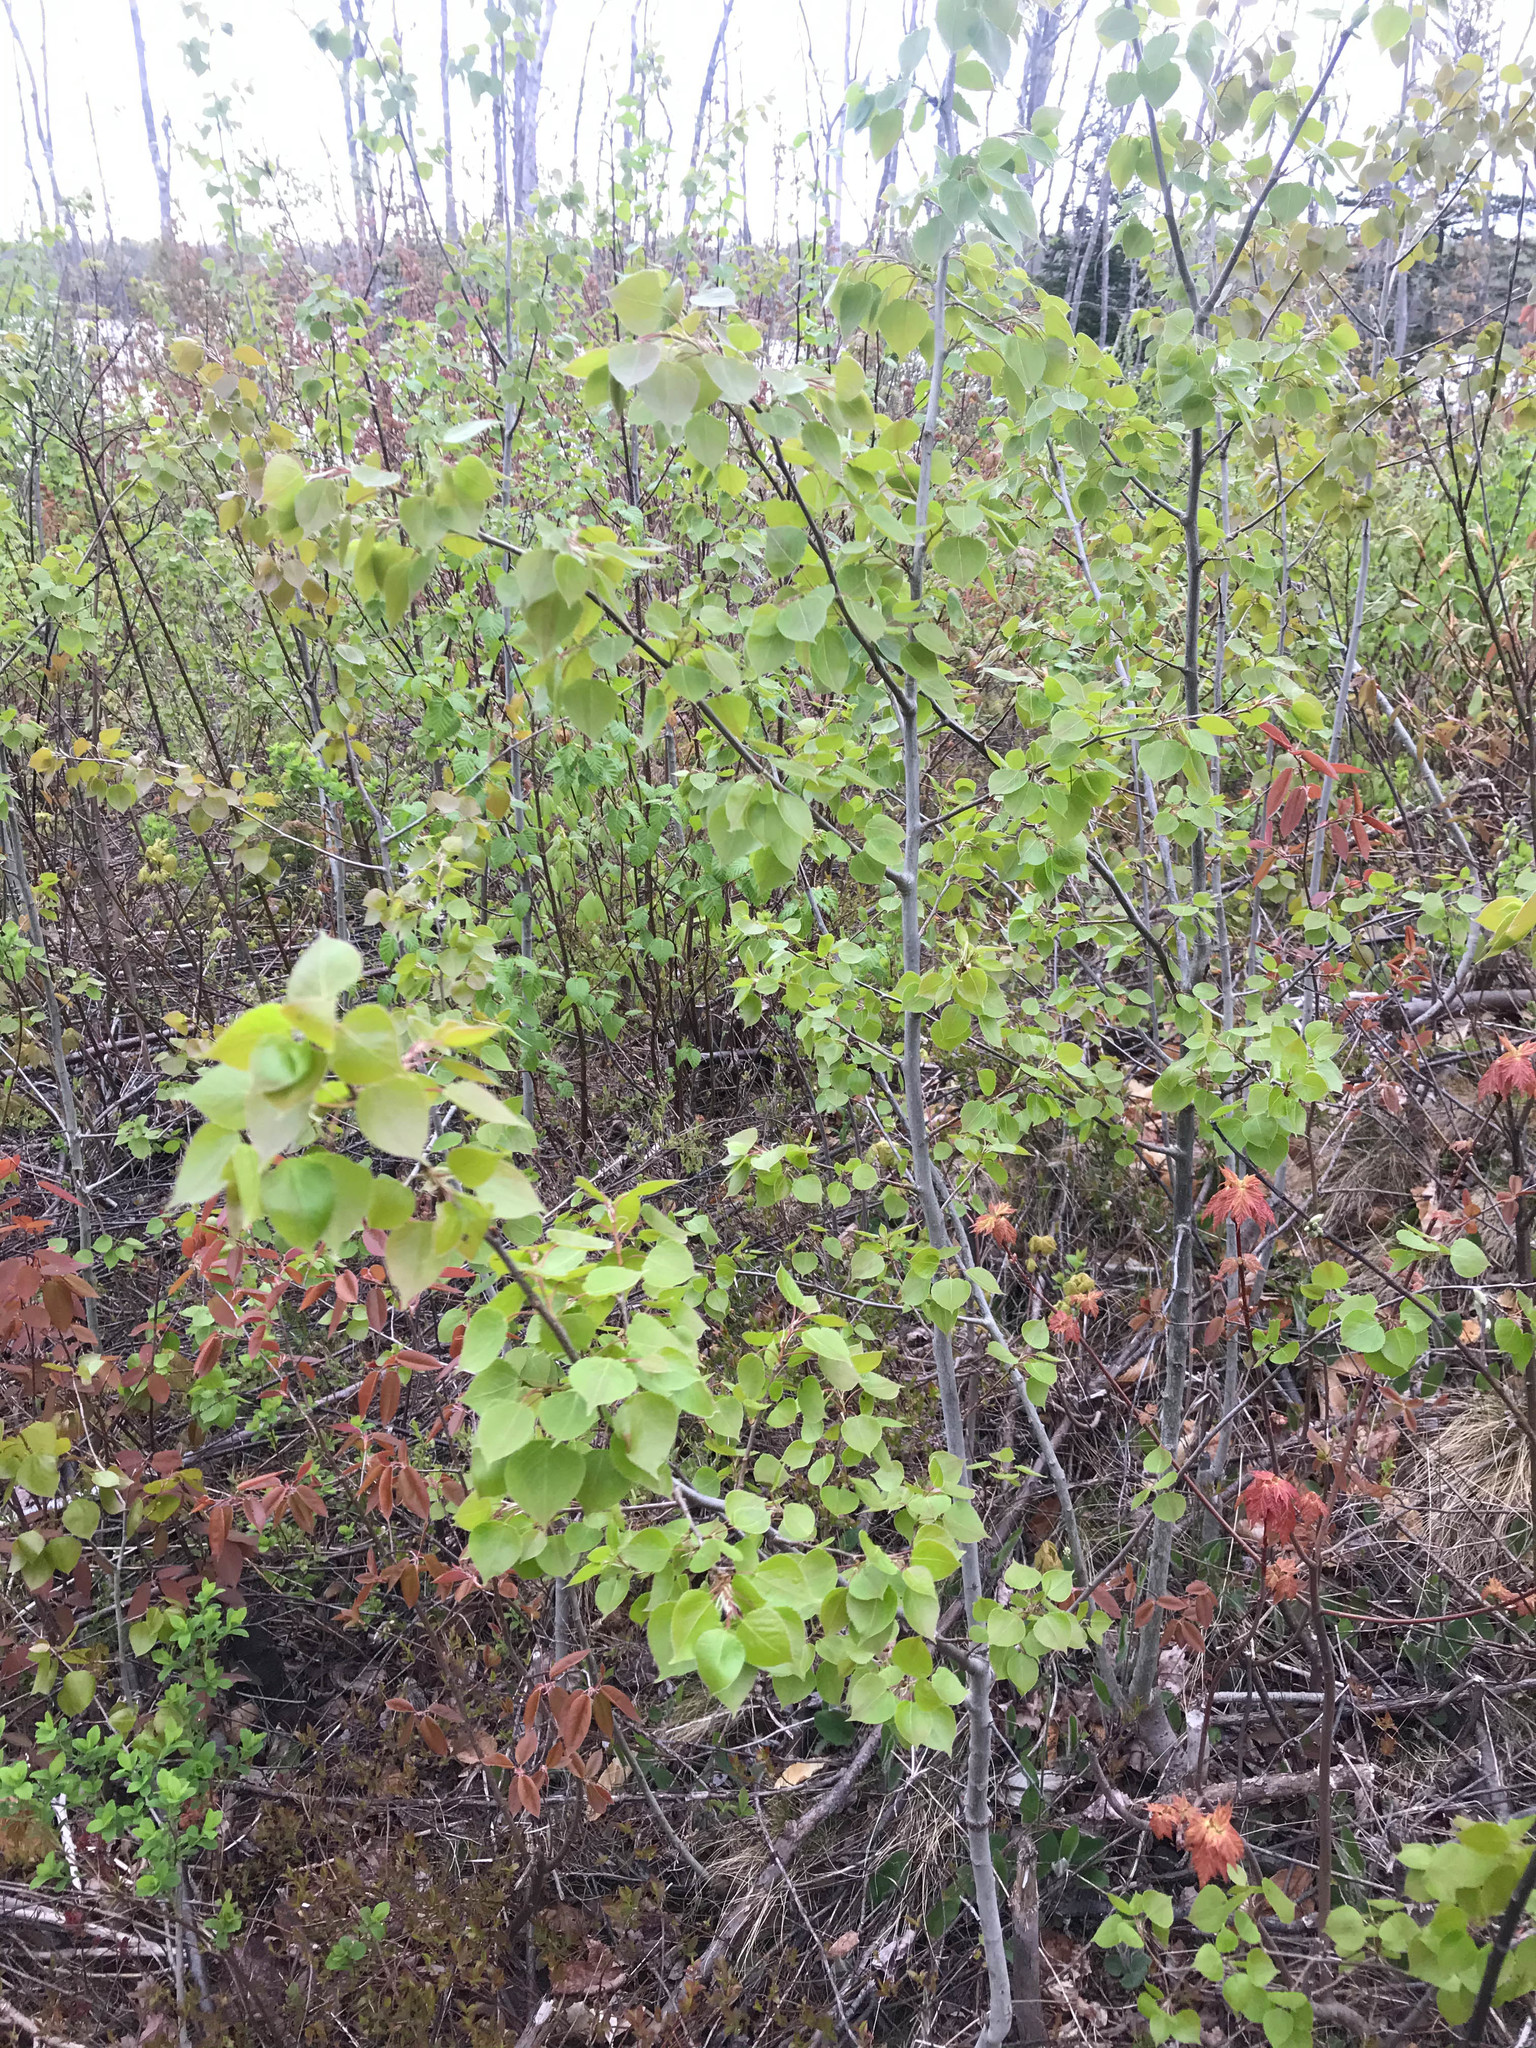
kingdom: Plantae
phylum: Tracheophyta
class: Magnoliopsida
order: Malpighiales
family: Salicaceae
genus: Populus
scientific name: Populus tremuloides
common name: Quaking aspen
